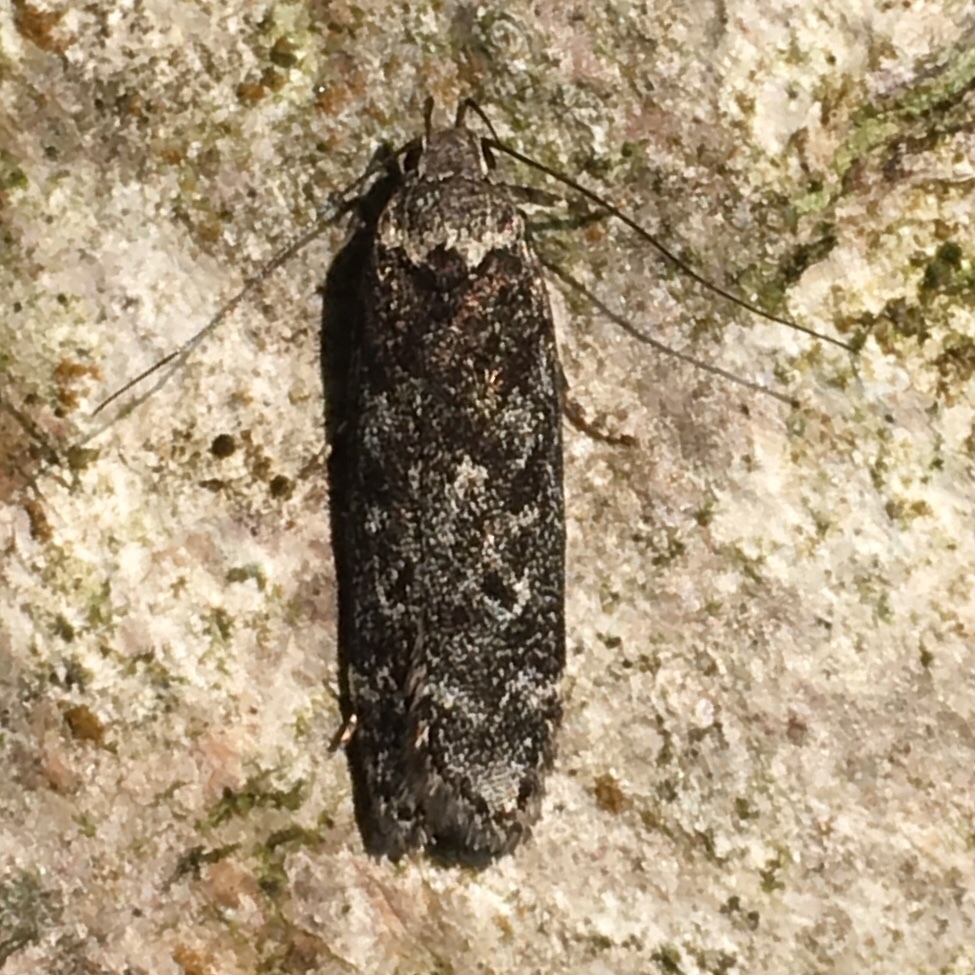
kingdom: Animalia
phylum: Arthropoda
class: Insecta
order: Lepidoptera
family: Gelechiidae
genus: Anacampsis
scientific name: Anacampsis niveopulvella
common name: Pale-headed aspen leafroller moth
